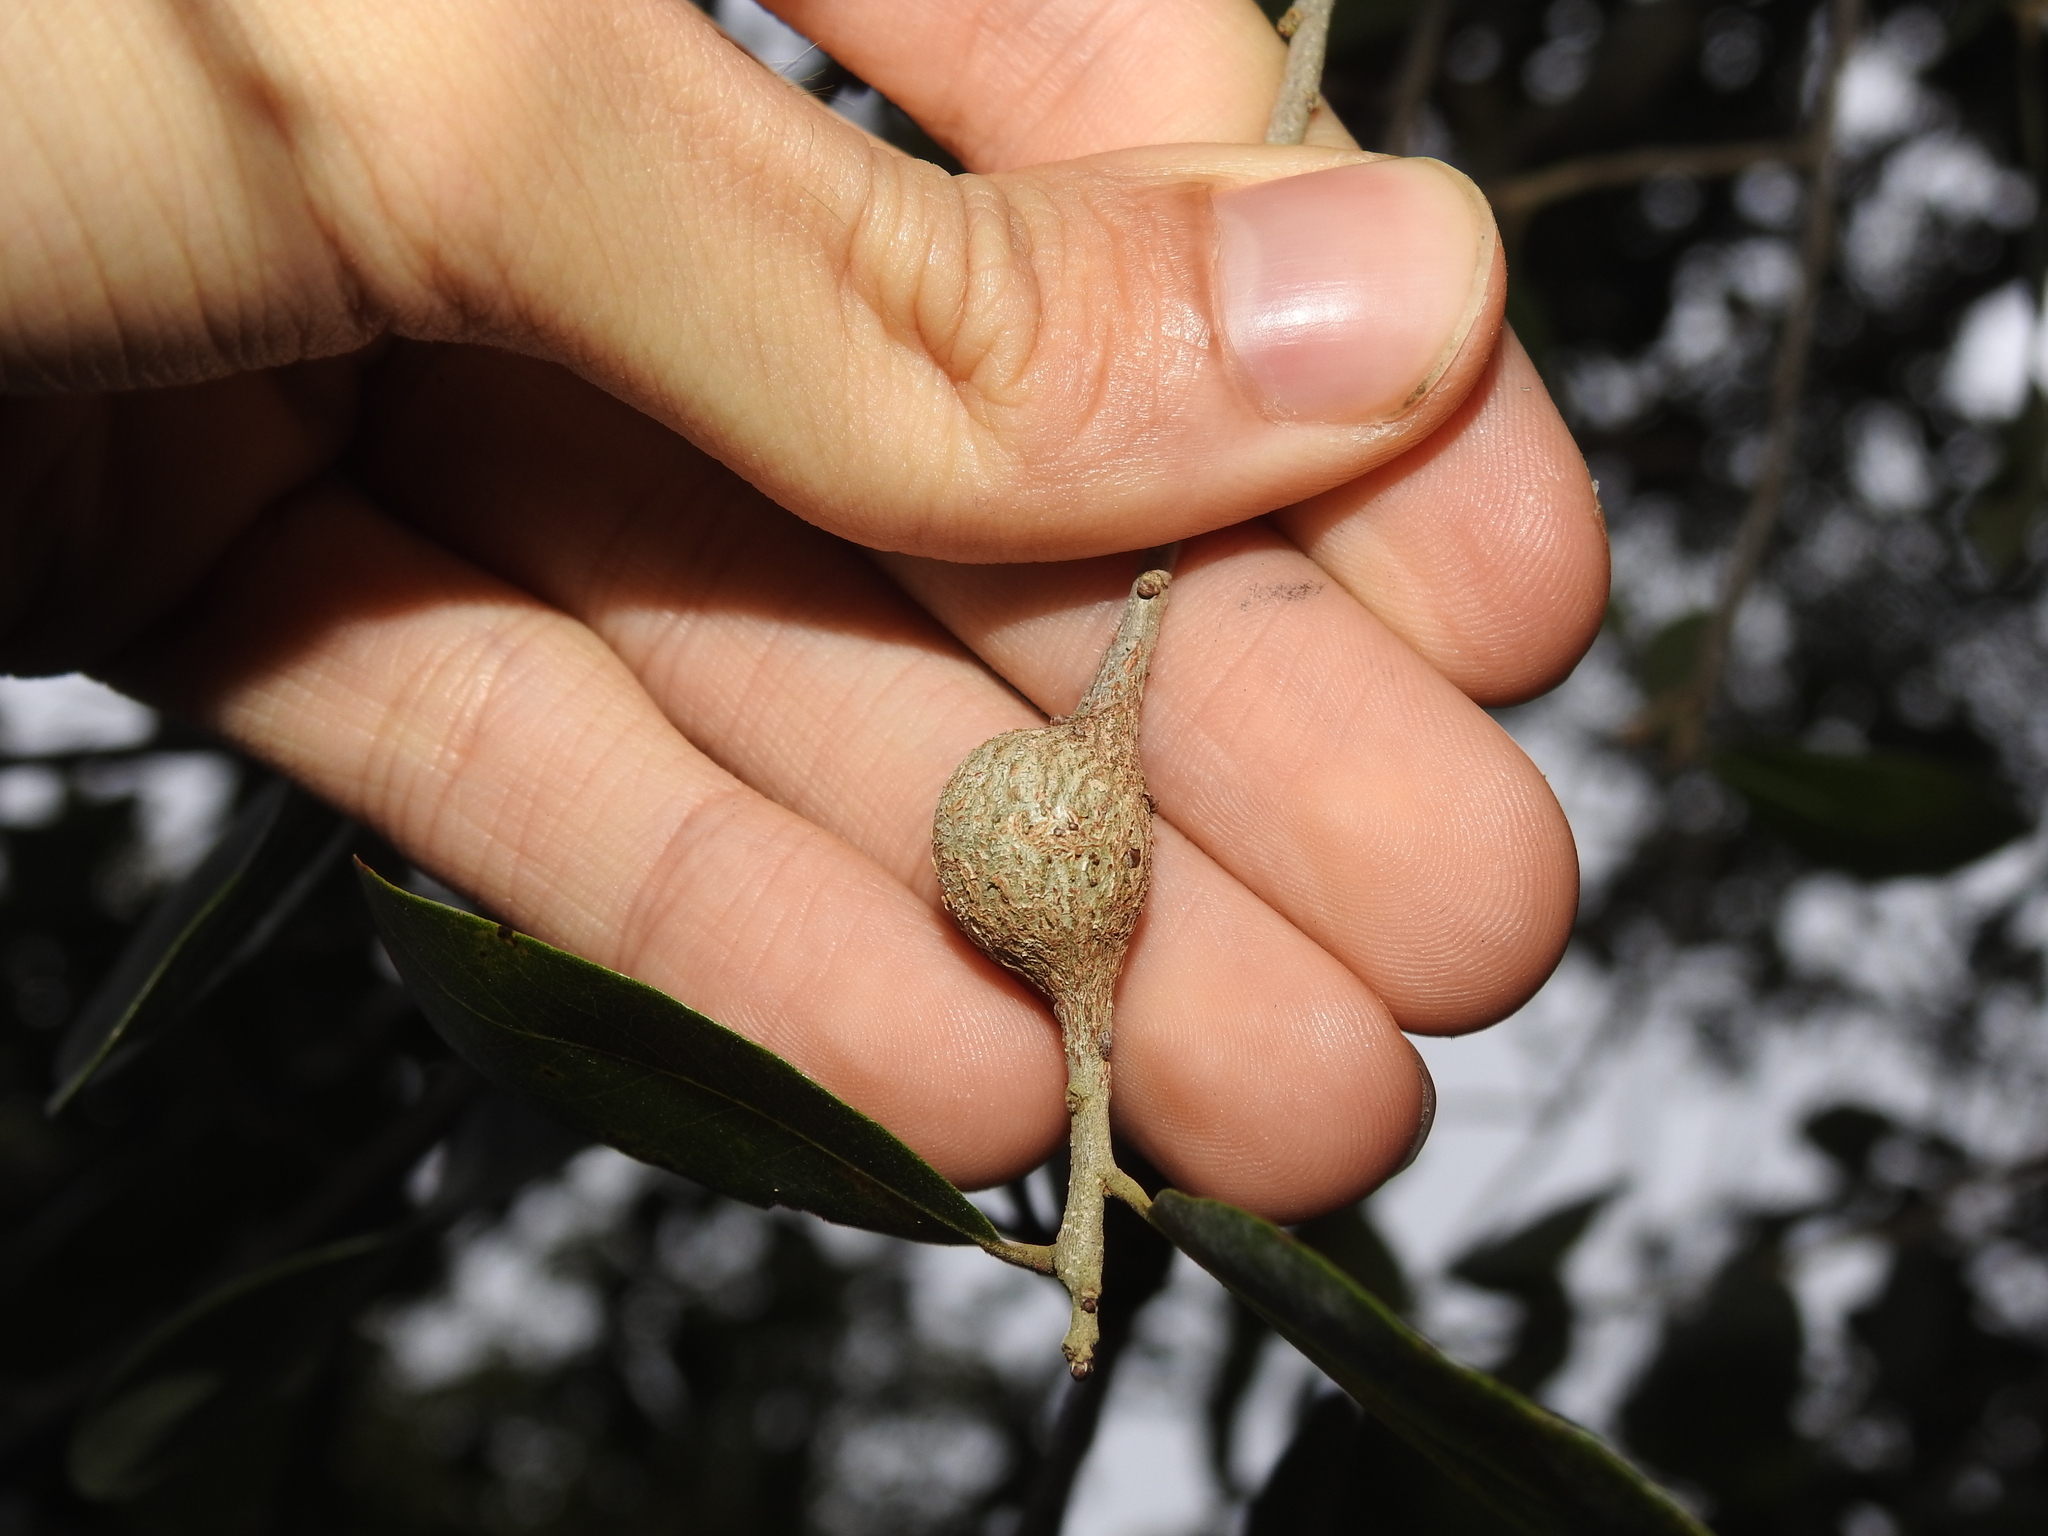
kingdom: Animalia
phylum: Arthropoda
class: Insecta
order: Hymenoptera
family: Cynipidae
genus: Callirhytis
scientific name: Callirhytis
